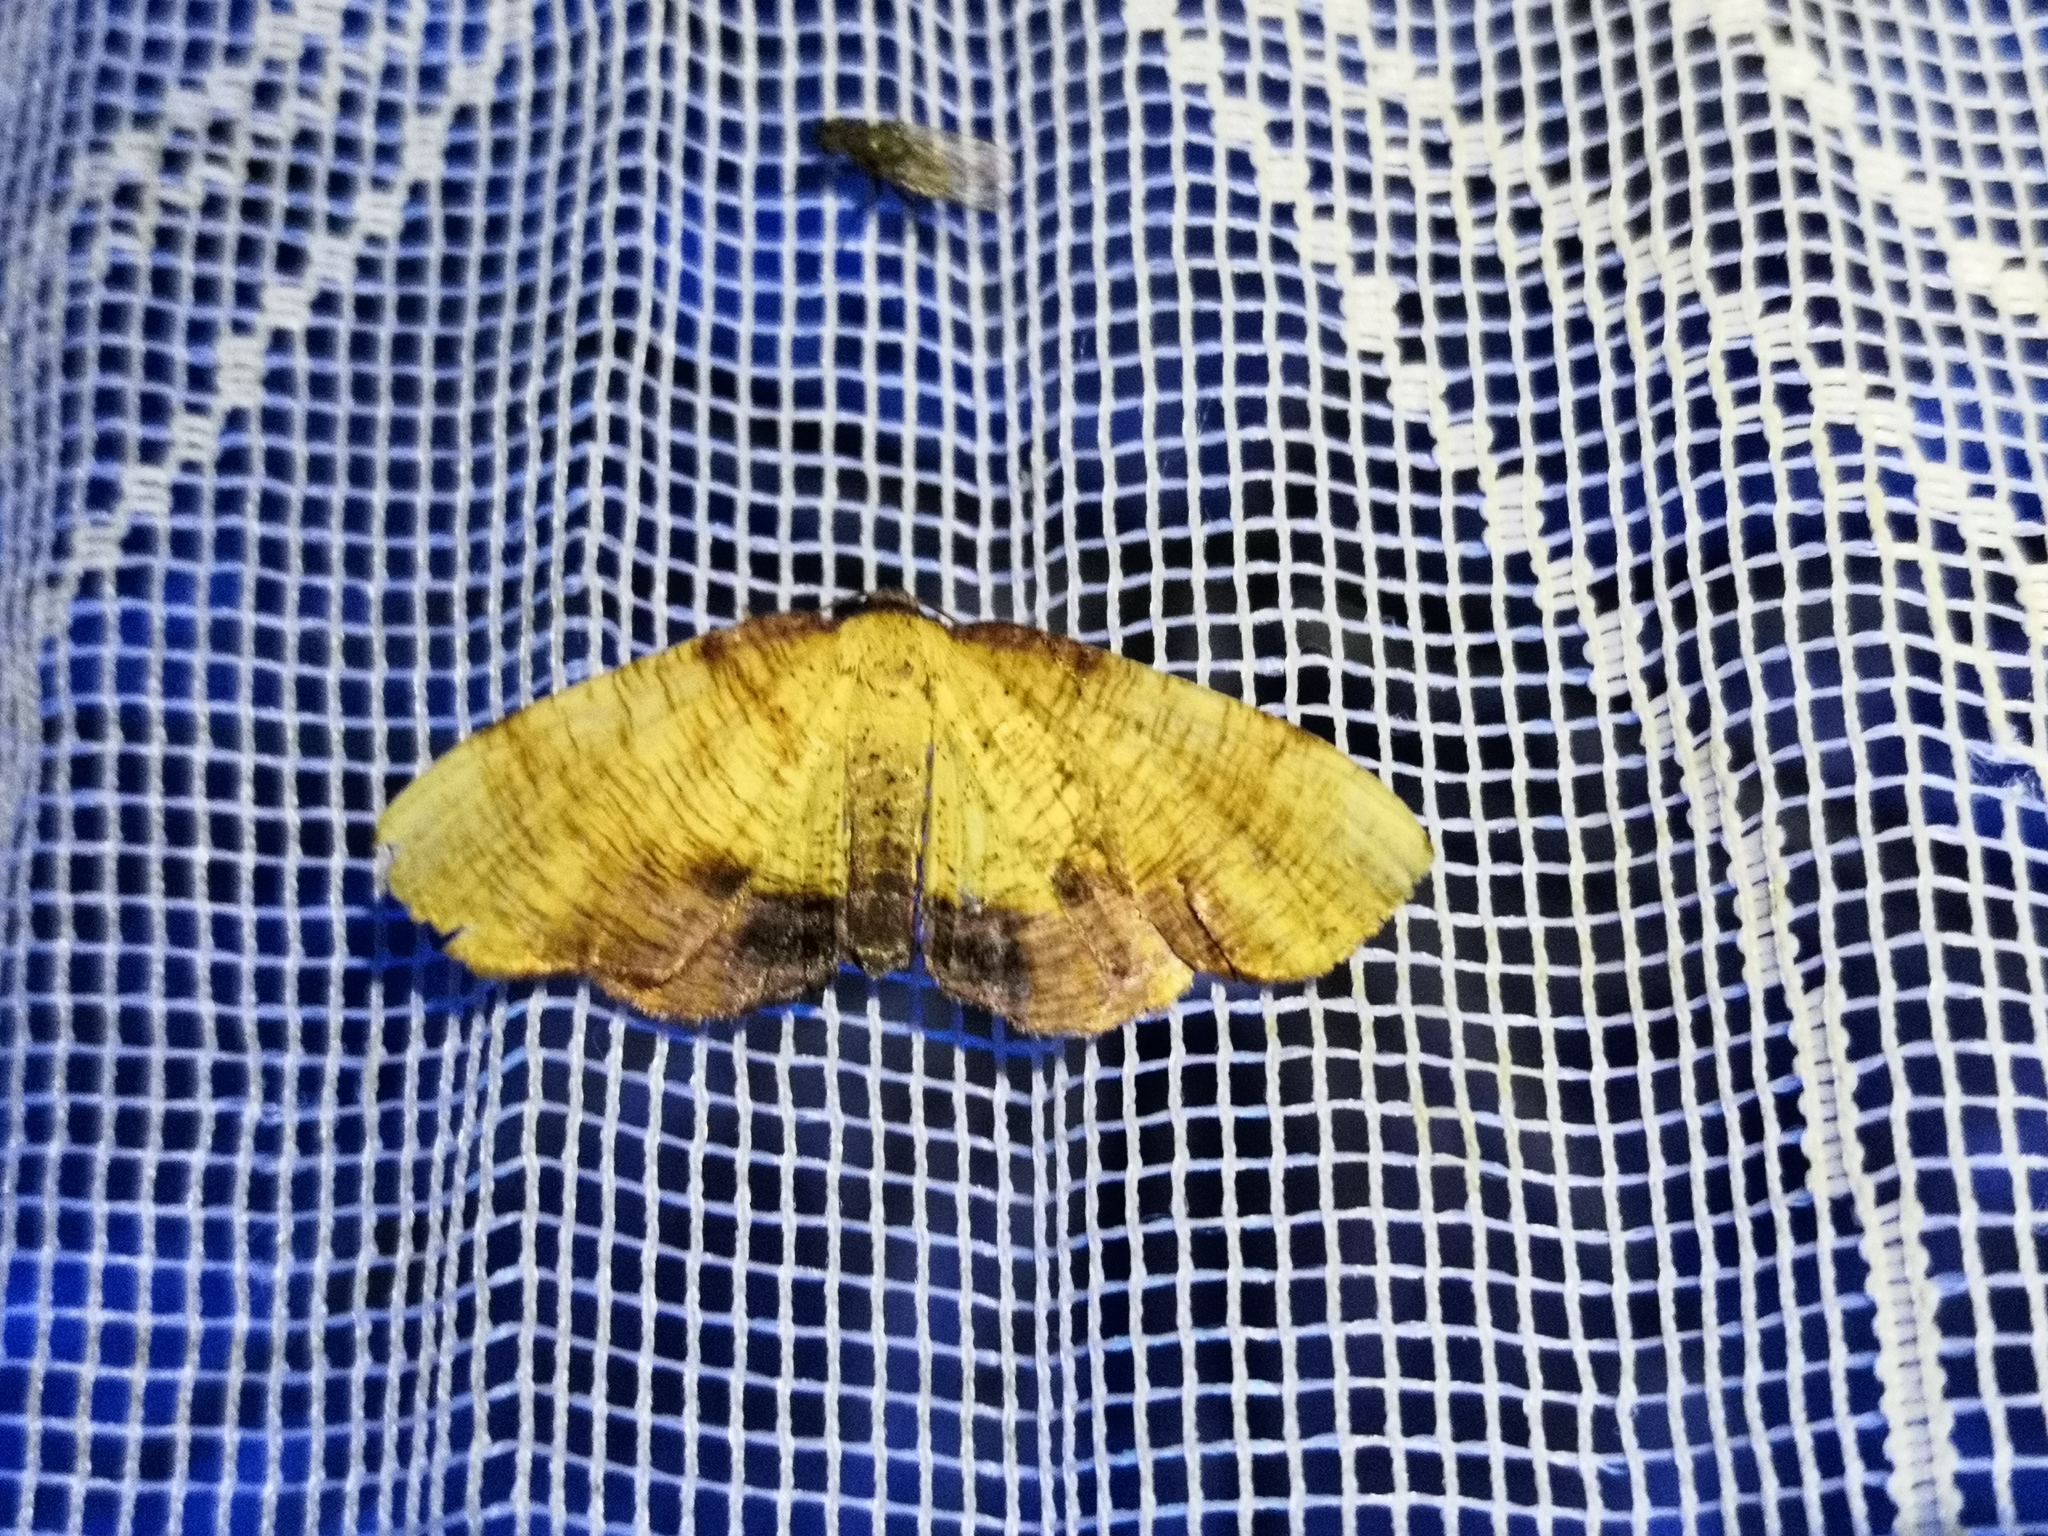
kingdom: Animalia
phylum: Arthropoda
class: Insecta
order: Lepidoptera
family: Geometridae
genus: Plagodis
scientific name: Plagodis dolabraria
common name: Scorched wing
